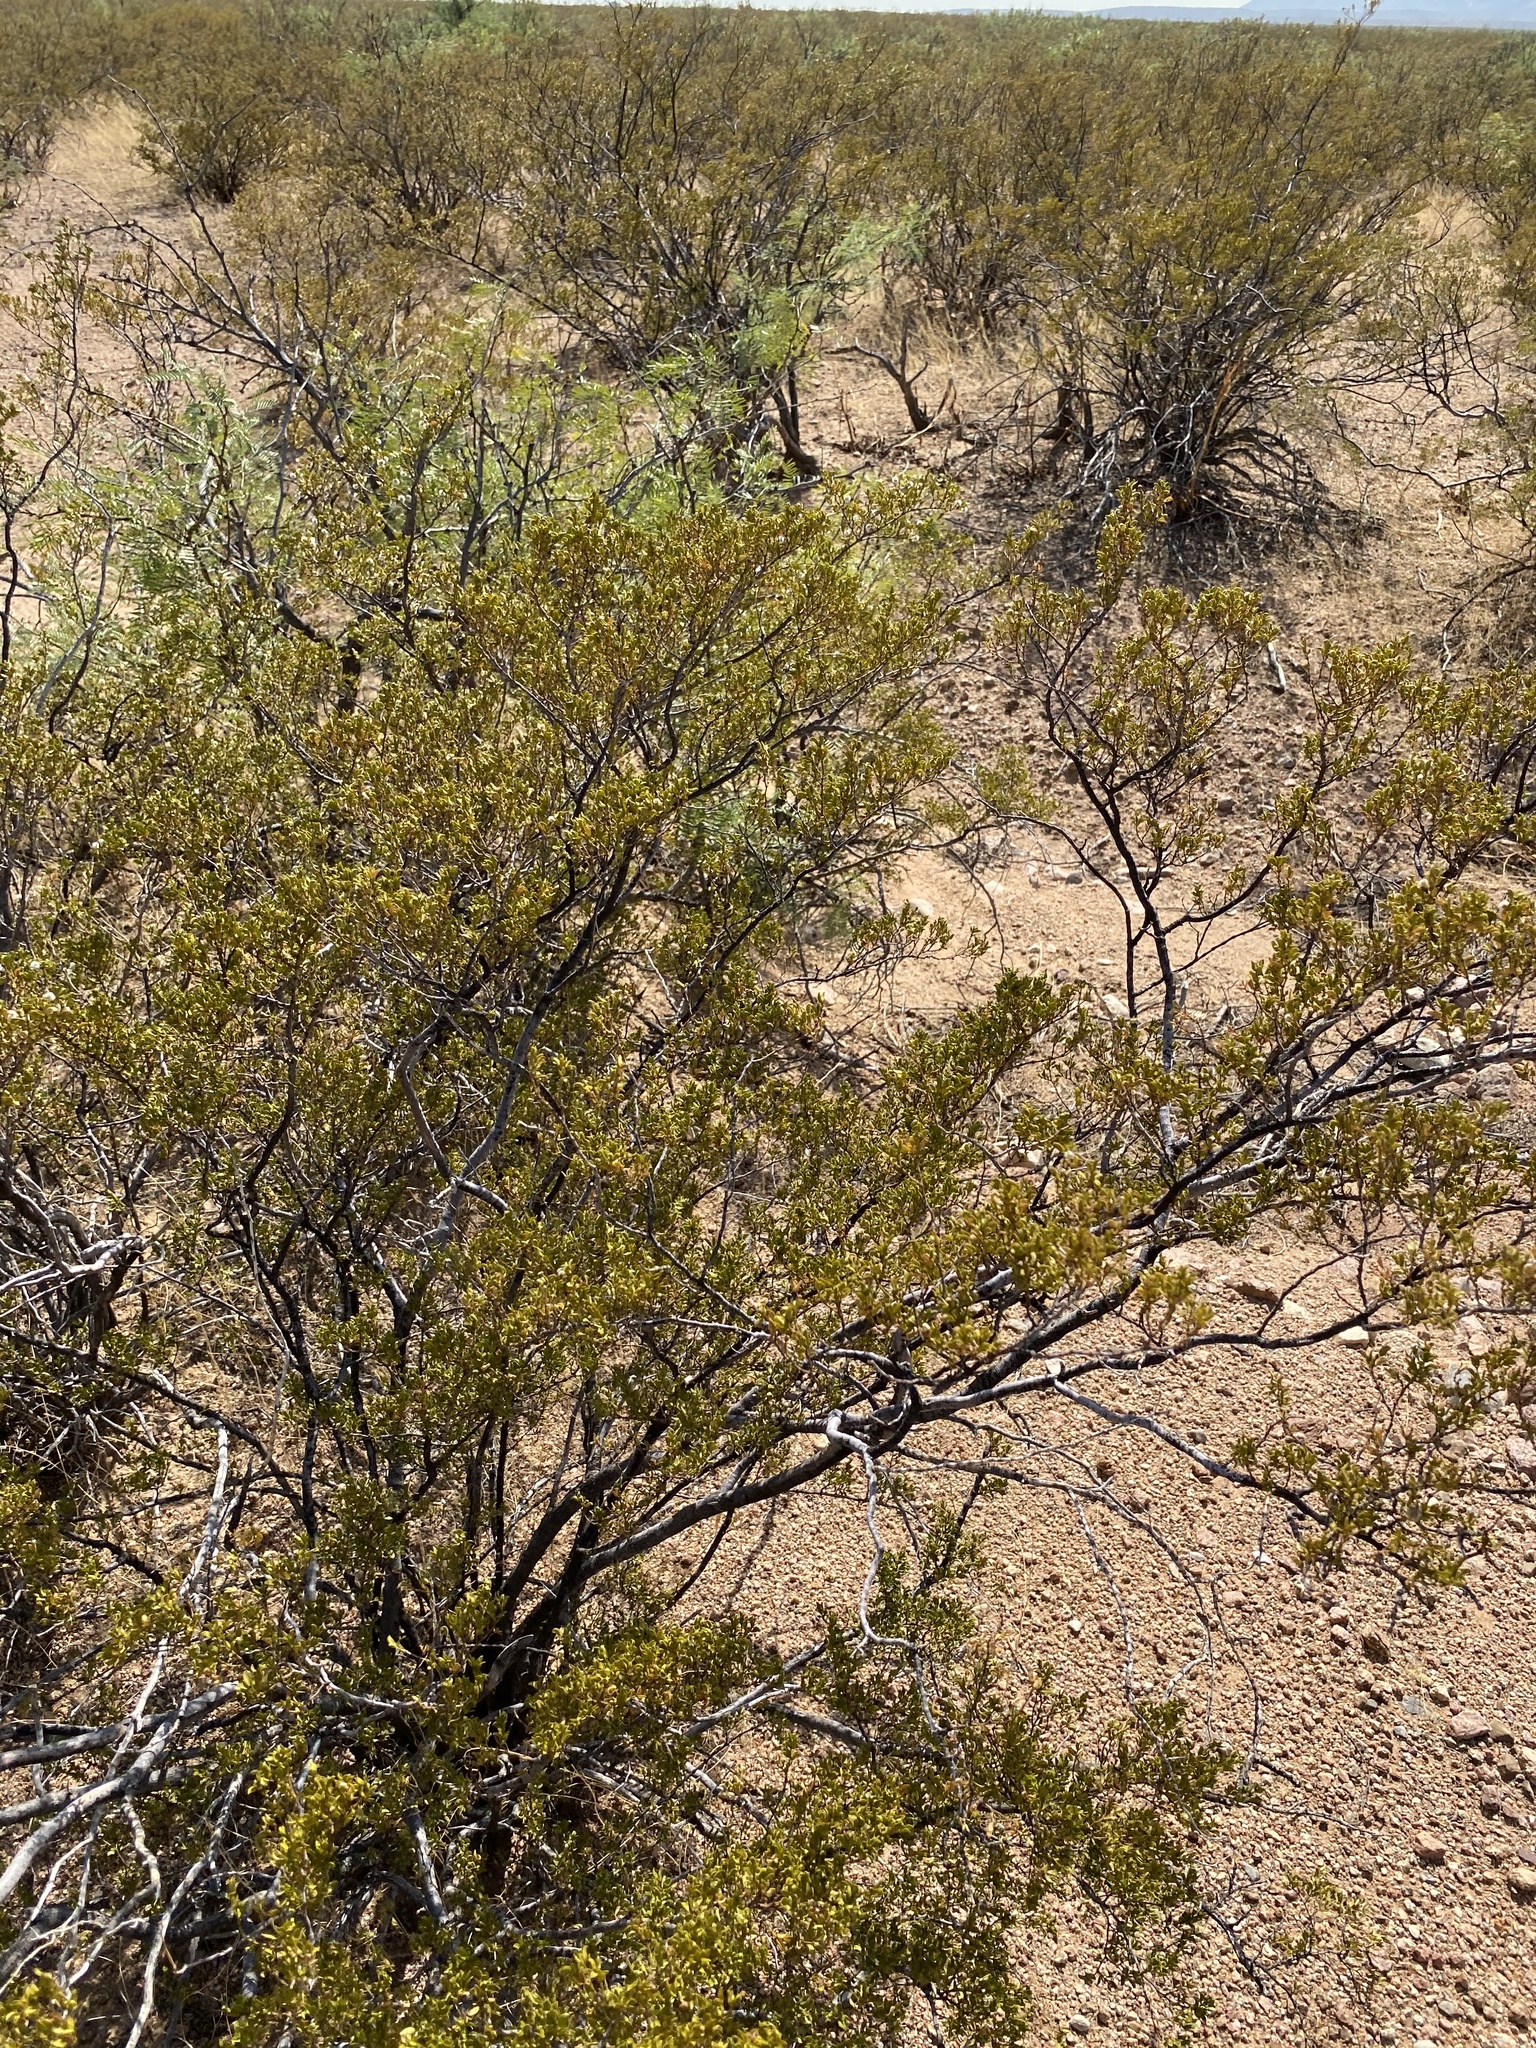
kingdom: Plantae
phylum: Tracheophyta
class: Magnoliopsida
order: Zygophyllales
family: Zygophyllaceae
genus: Larrea
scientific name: Larrea tridentata
